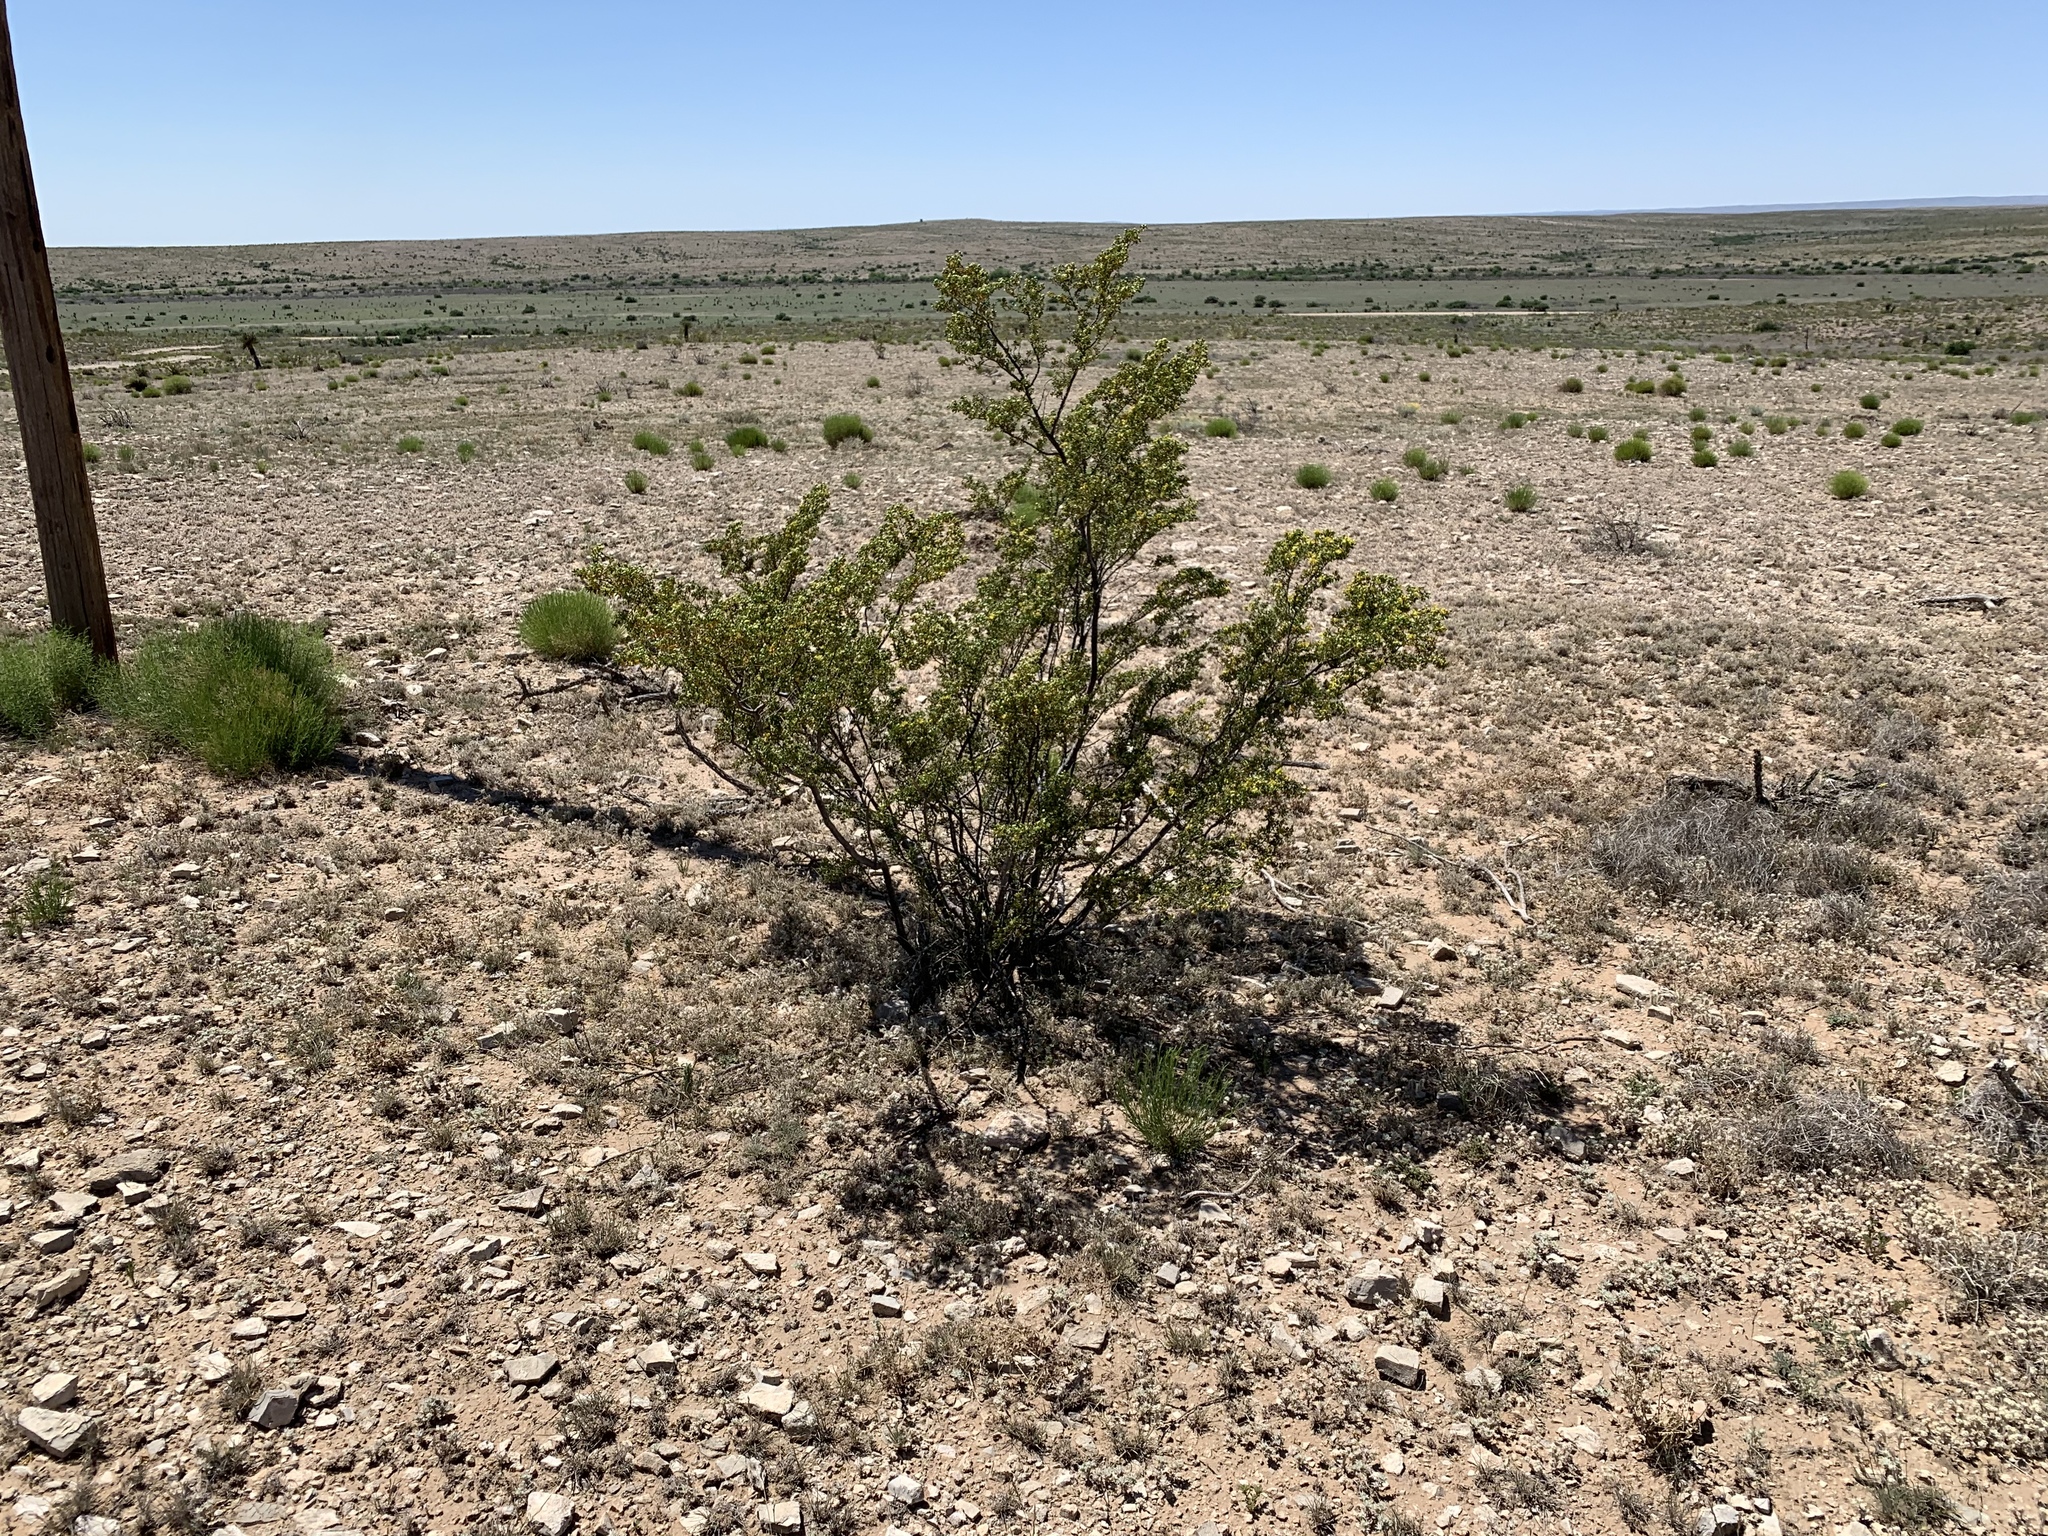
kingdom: Plantae
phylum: Tracheophyta
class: Magnoliopsida
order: Zygophyllales
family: Zygophyllaceae
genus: Larrea
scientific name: Larrea tridentata
